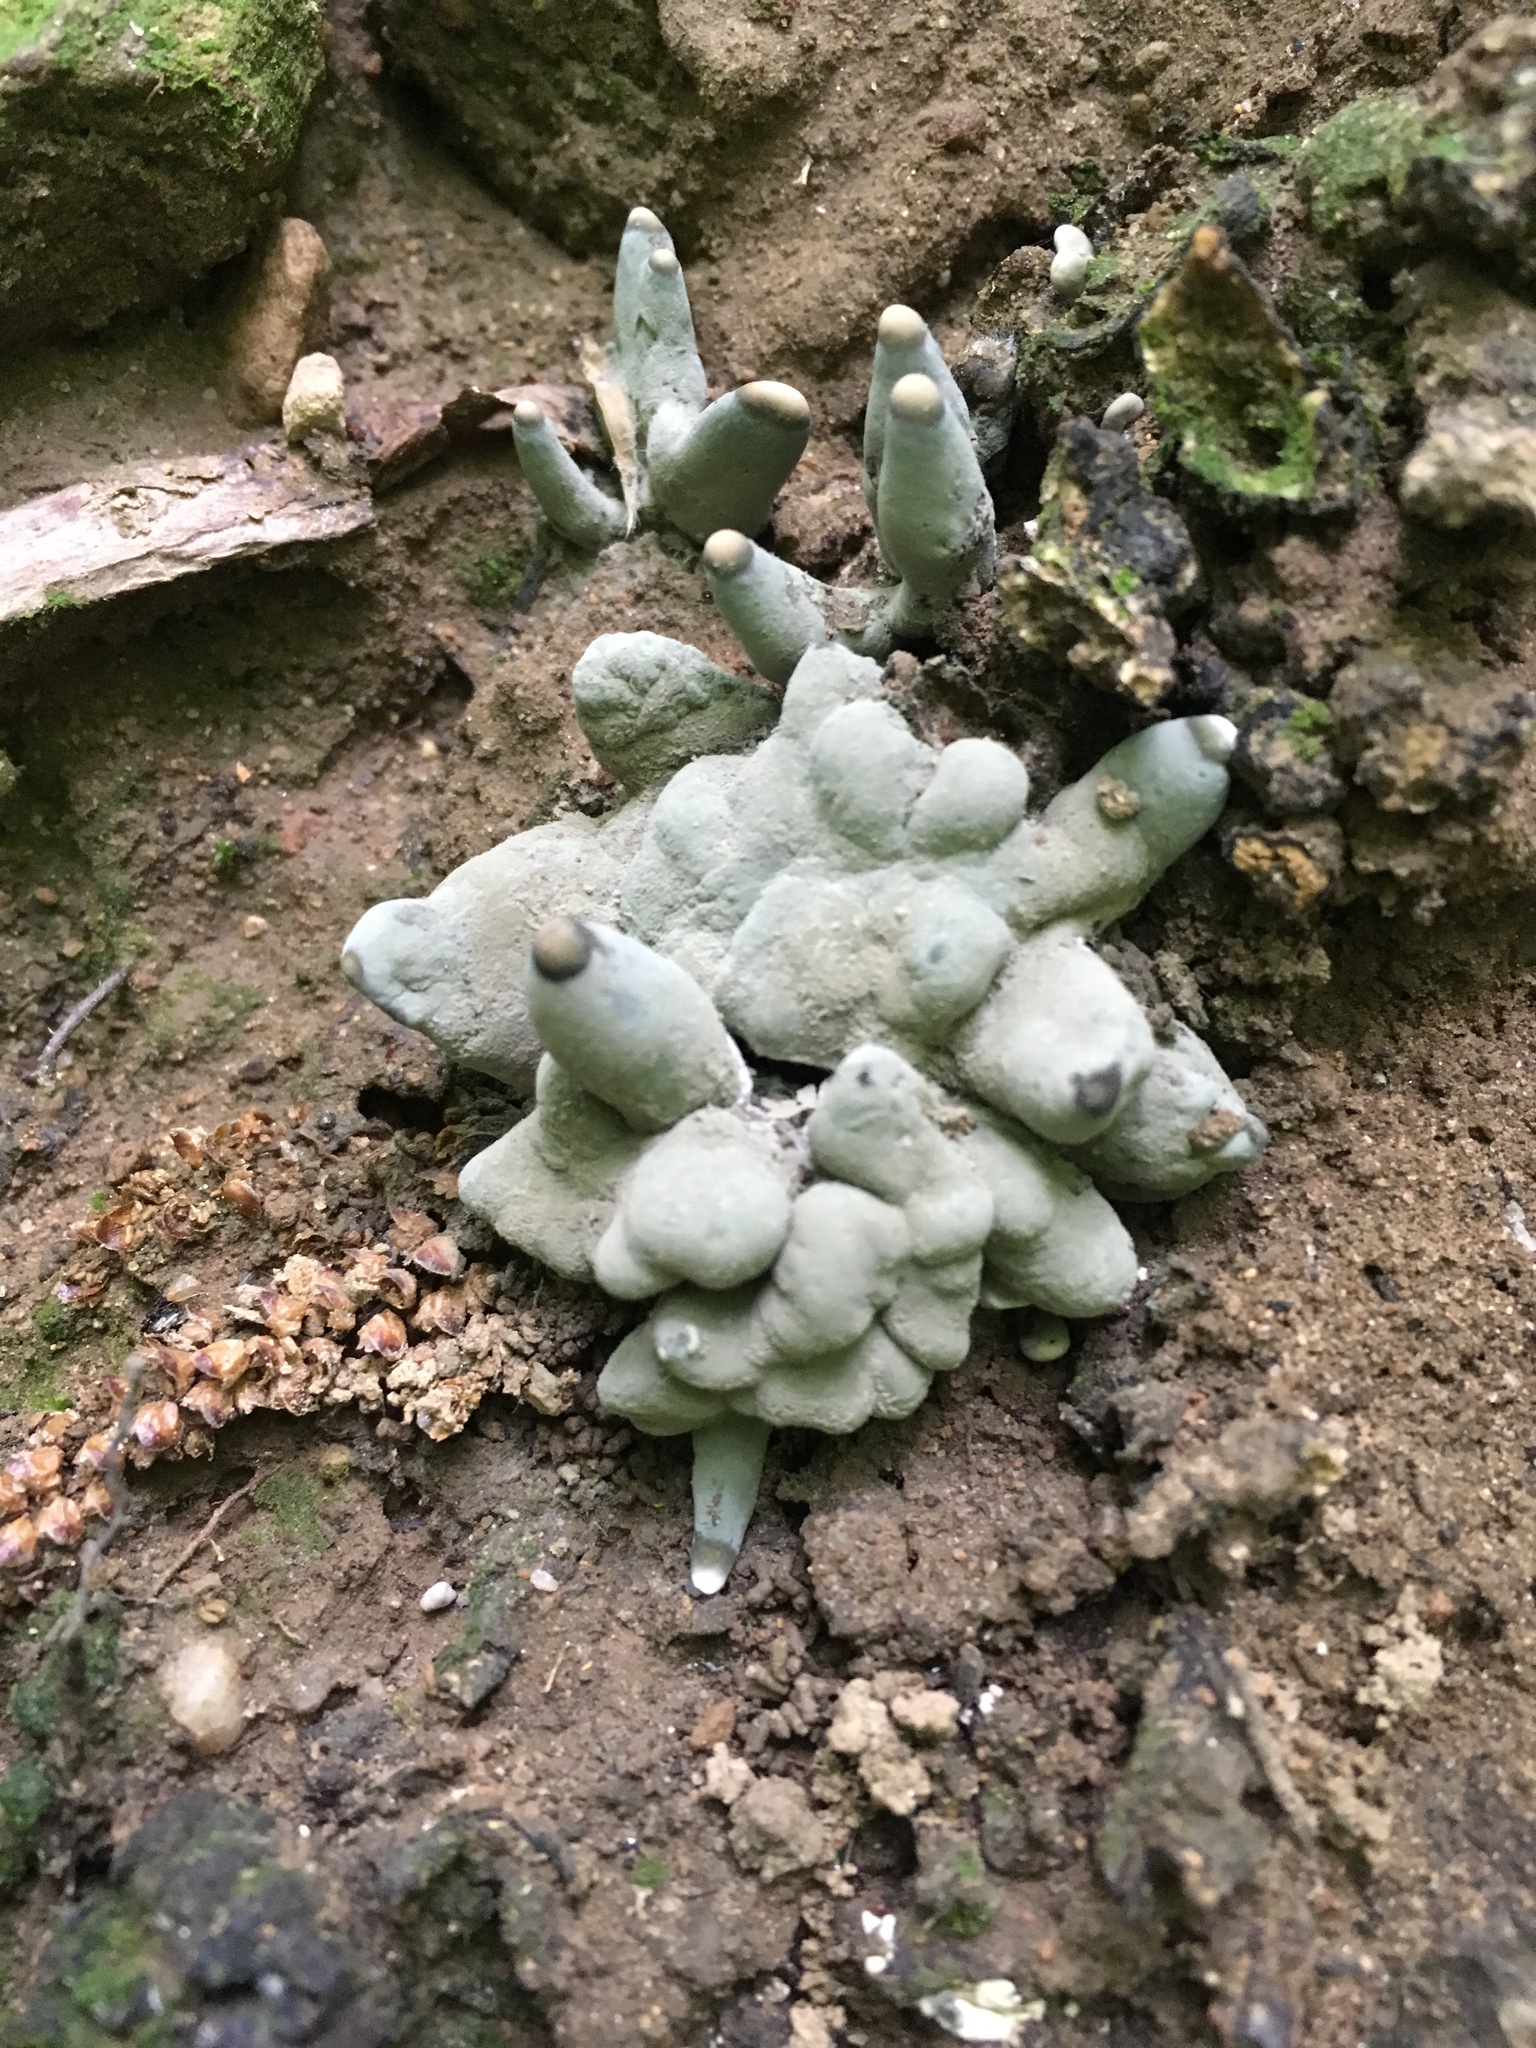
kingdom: Fungi
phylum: Ascomycota
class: Sordariomycetes
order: Xylariales
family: Xylariaceae
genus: Xylaria
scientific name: Xylaria polymorpha
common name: Dead man's fingers
